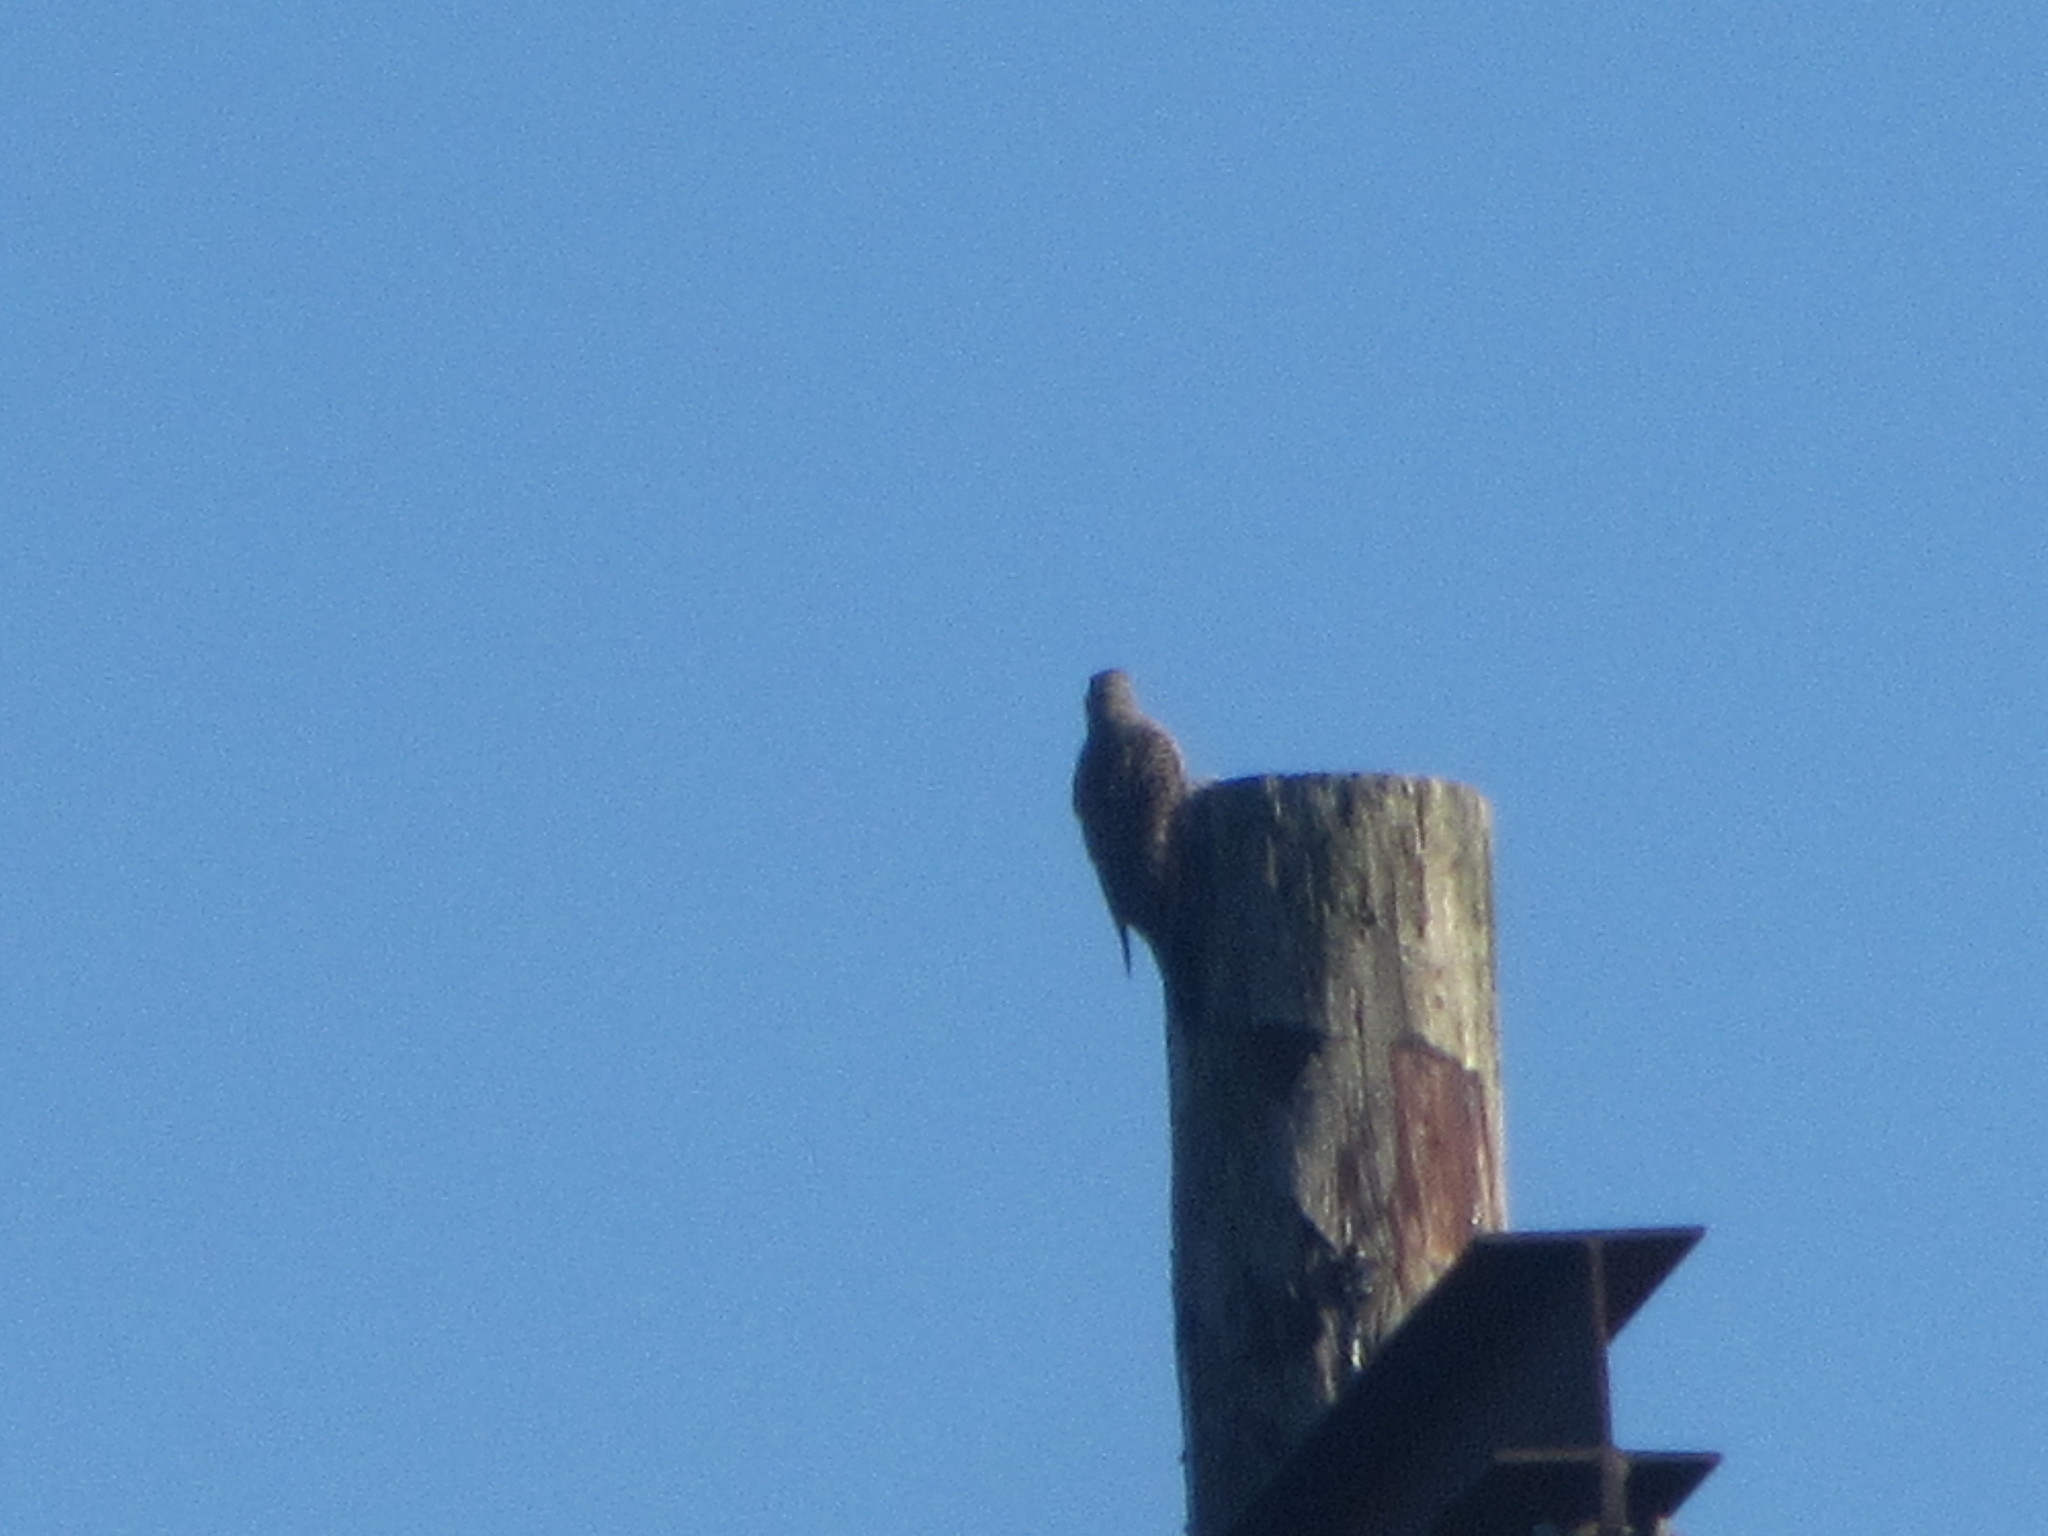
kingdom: Animalia
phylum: Chordata
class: Aves
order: Piciformes
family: Picidae
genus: Colaptes
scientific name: Colaptes auratus
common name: Northern flicker
